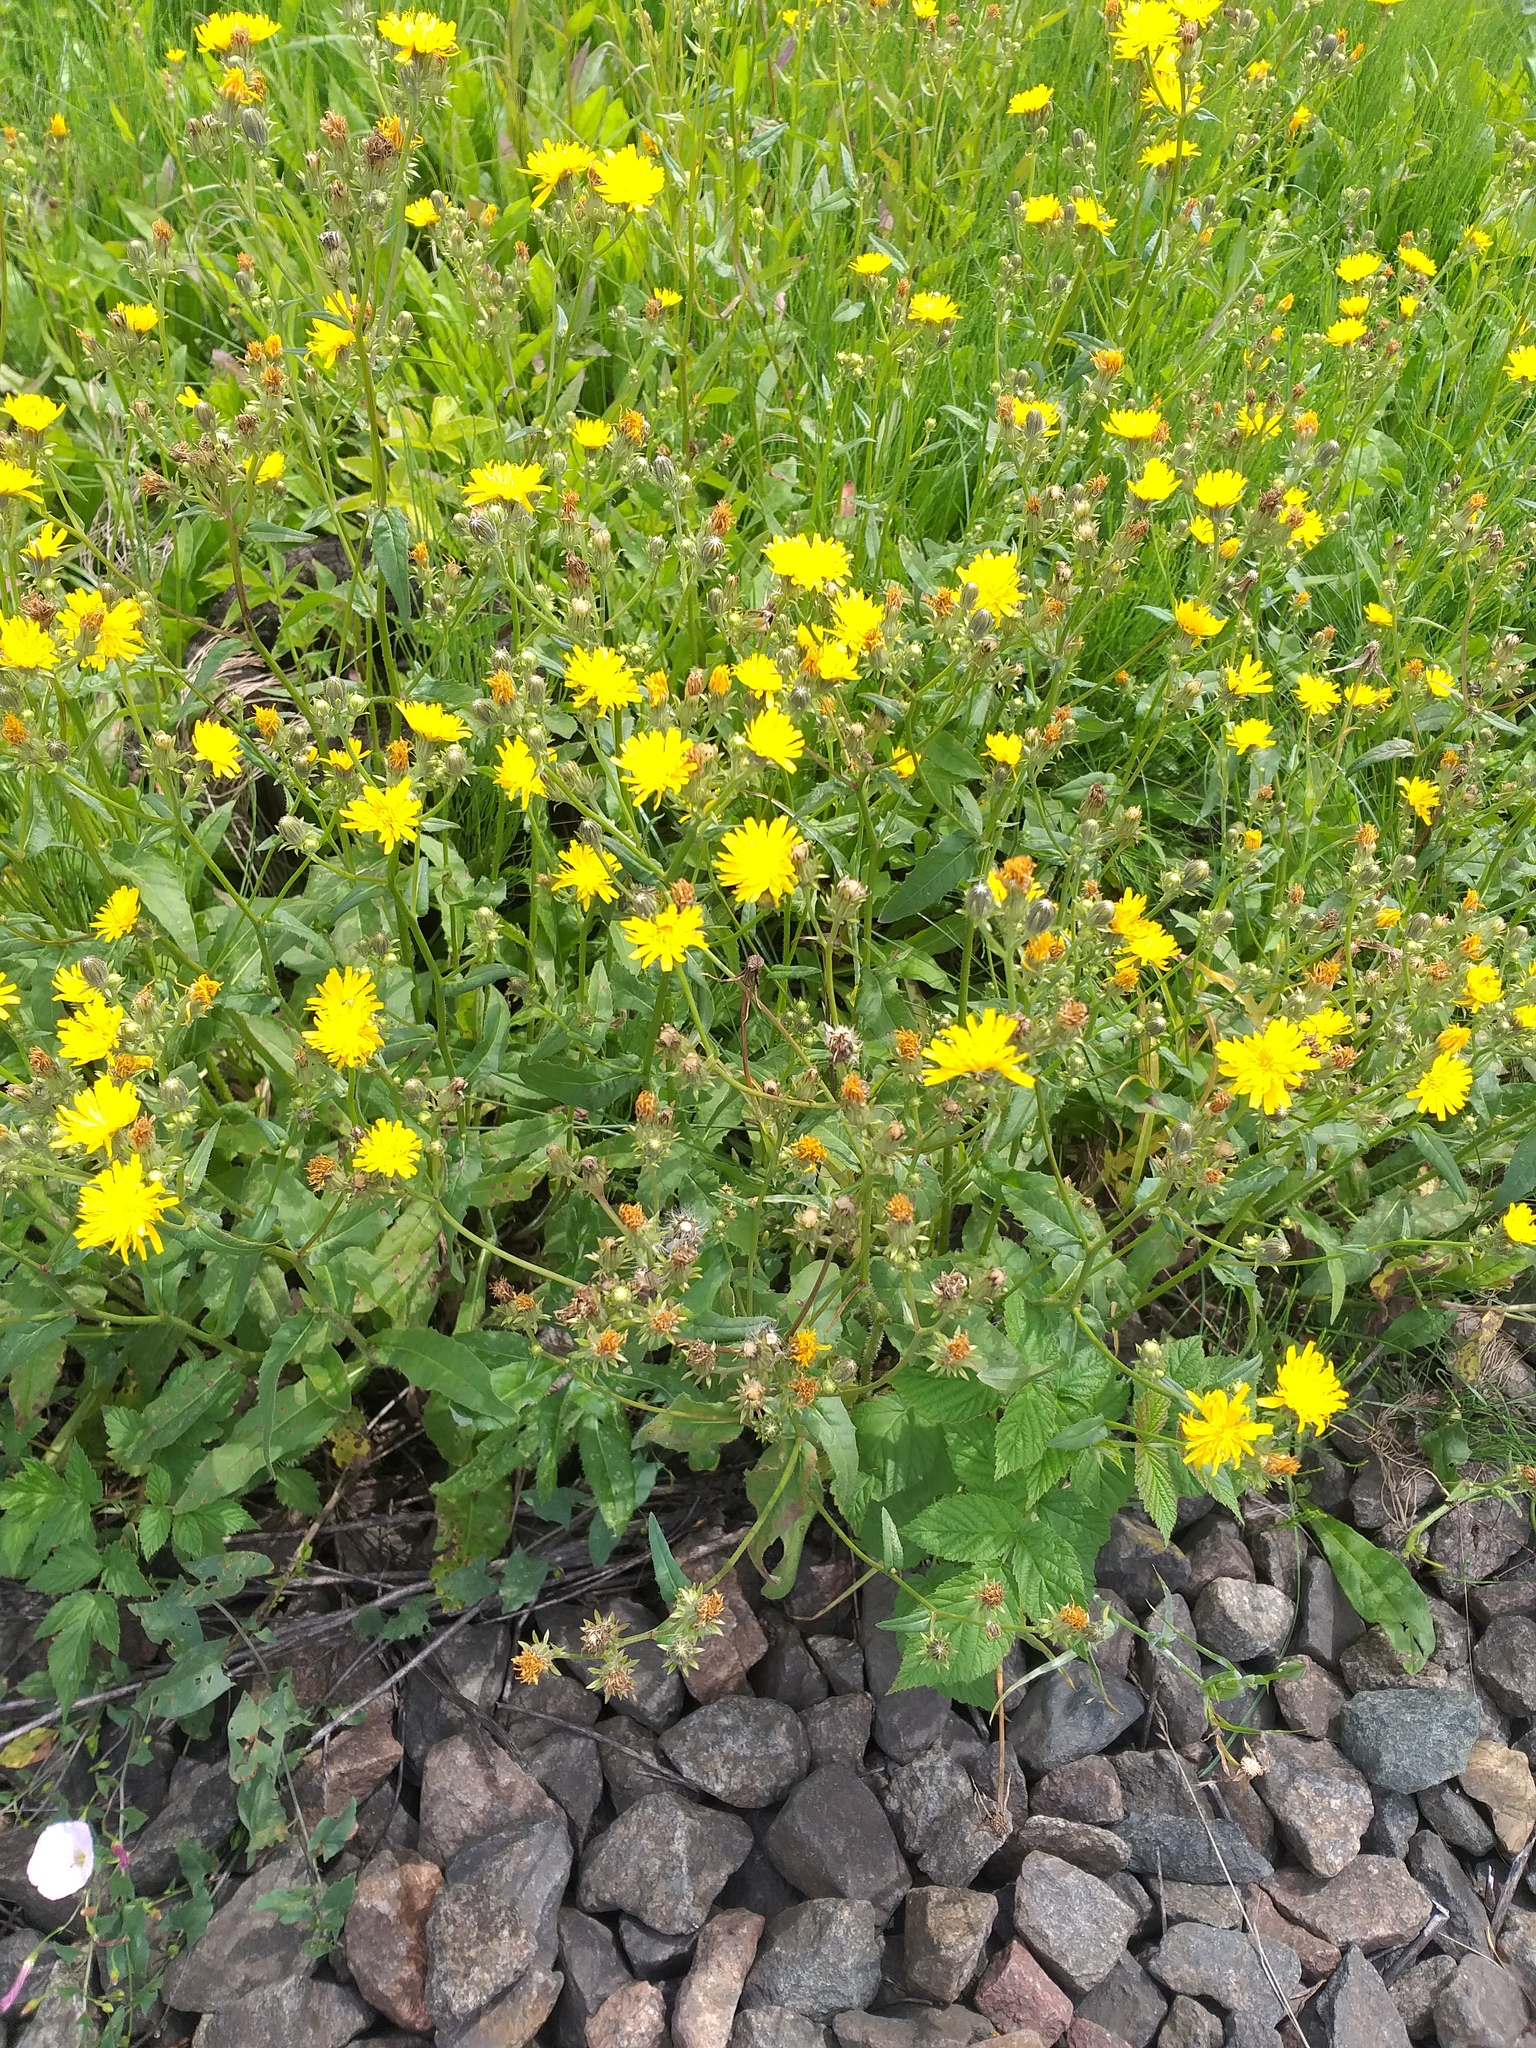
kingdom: Plantae
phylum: Tracheophyta
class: Magnoliopsida
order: Asterales
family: Asteraceae
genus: Picris
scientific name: Picris hieracioides
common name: Hawkweed oxtongue
